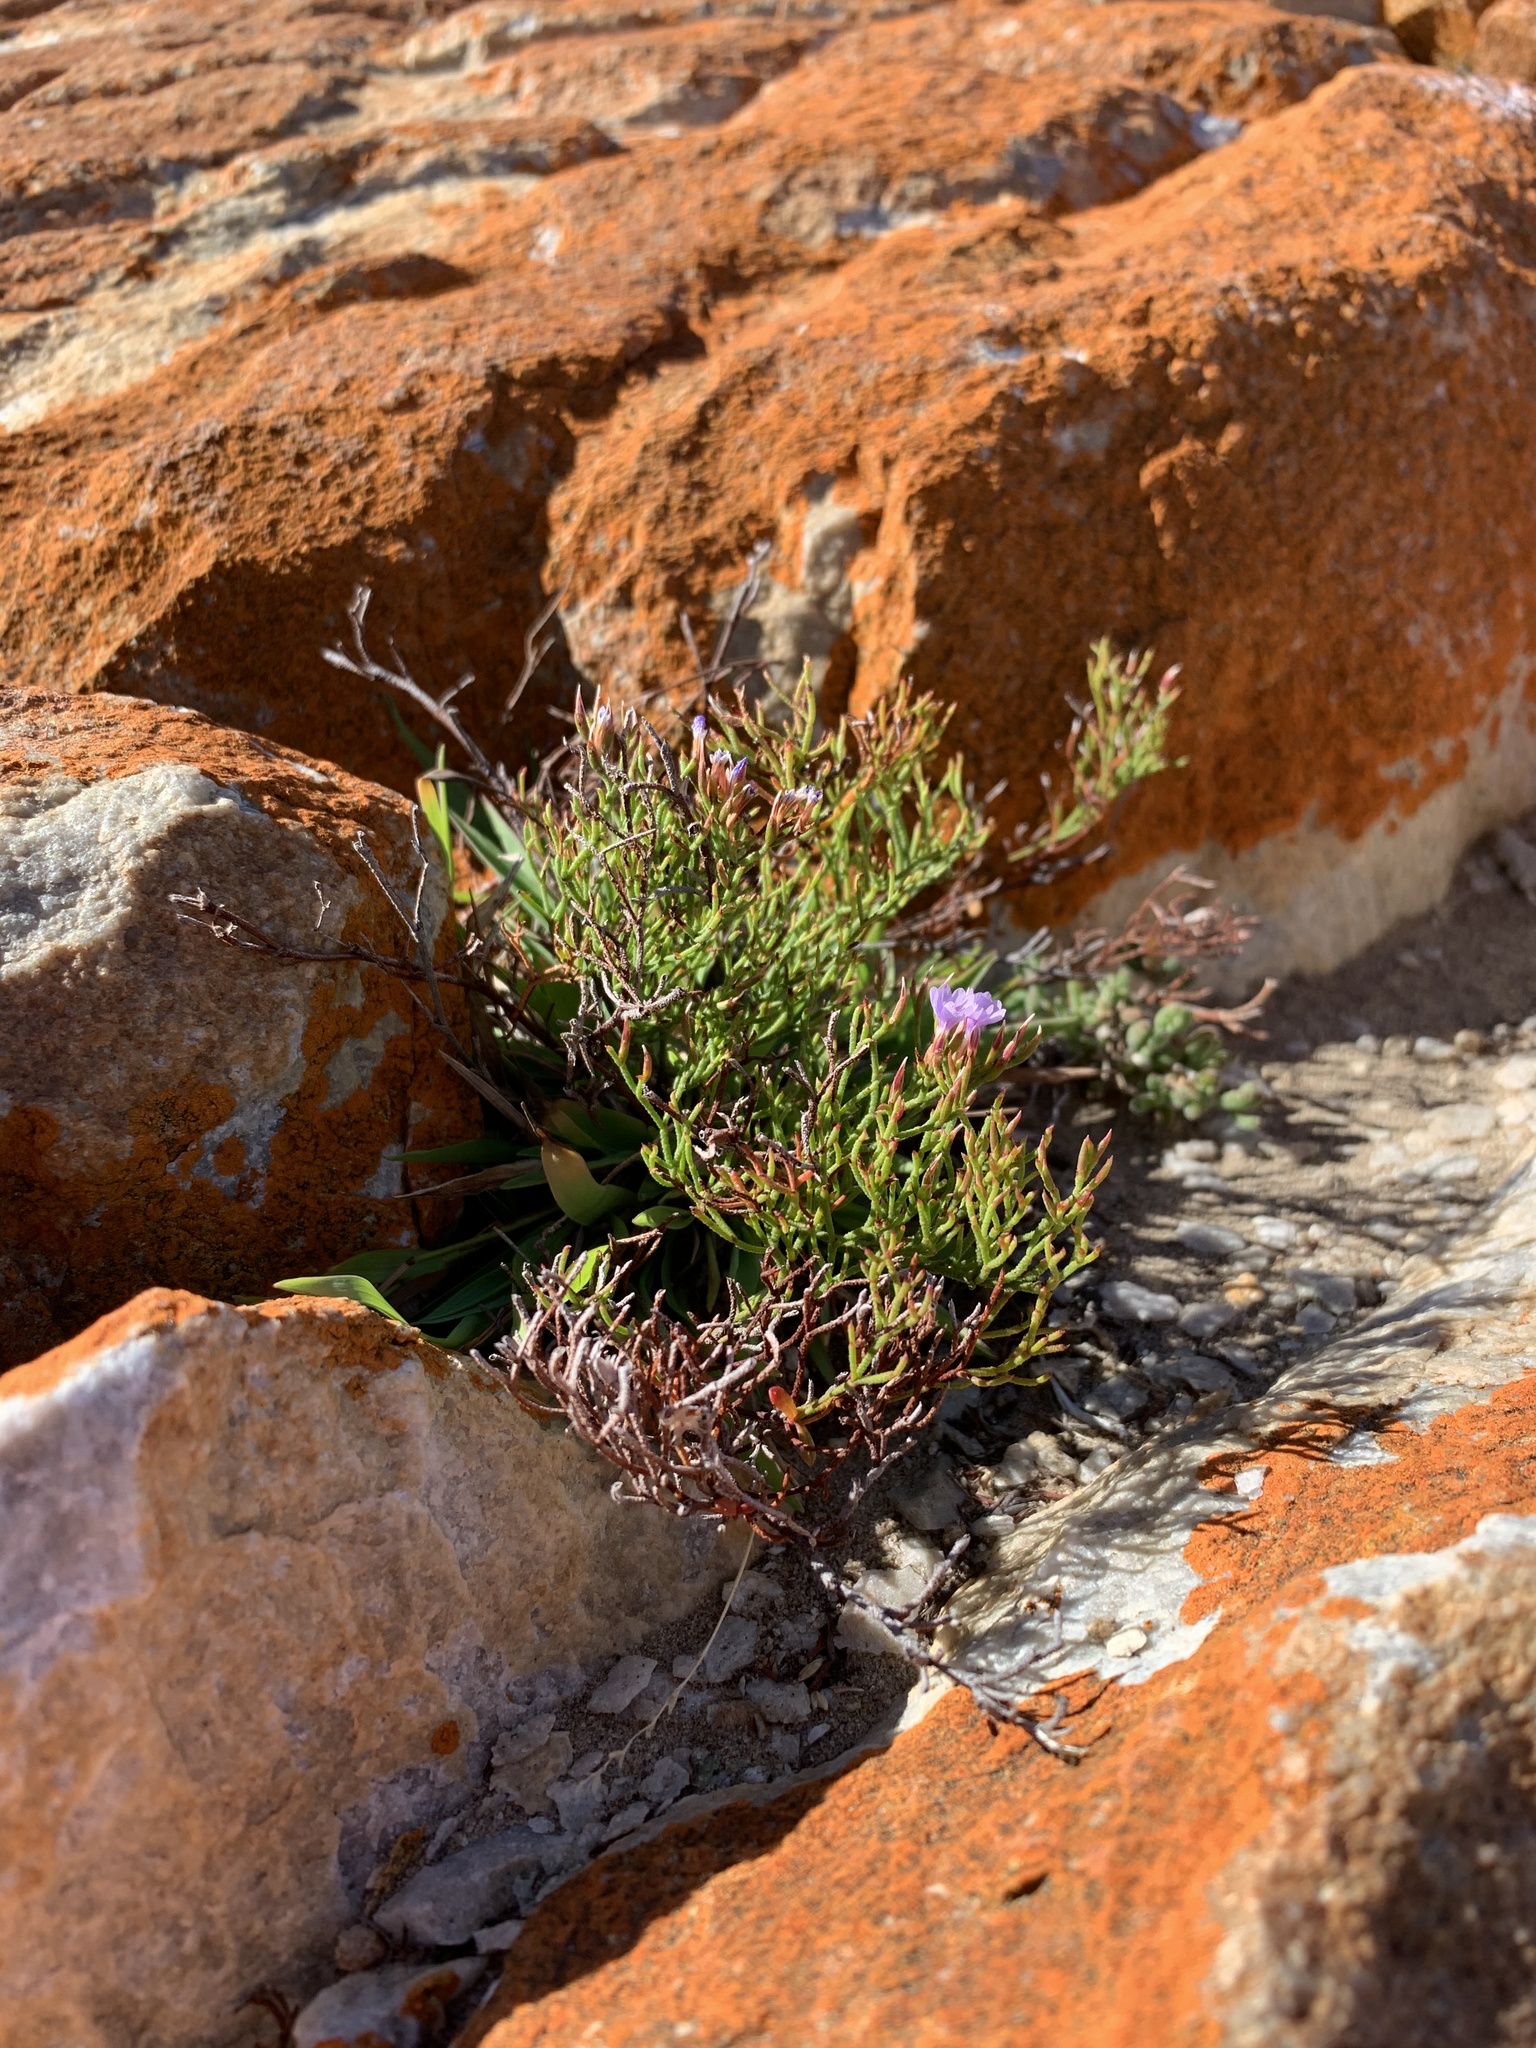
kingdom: Plantae
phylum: Tracheophyta
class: Magnoliopsida
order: Caryophyllales
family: Plumbaginaceae
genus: Limonium
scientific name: Limonium scabrum
